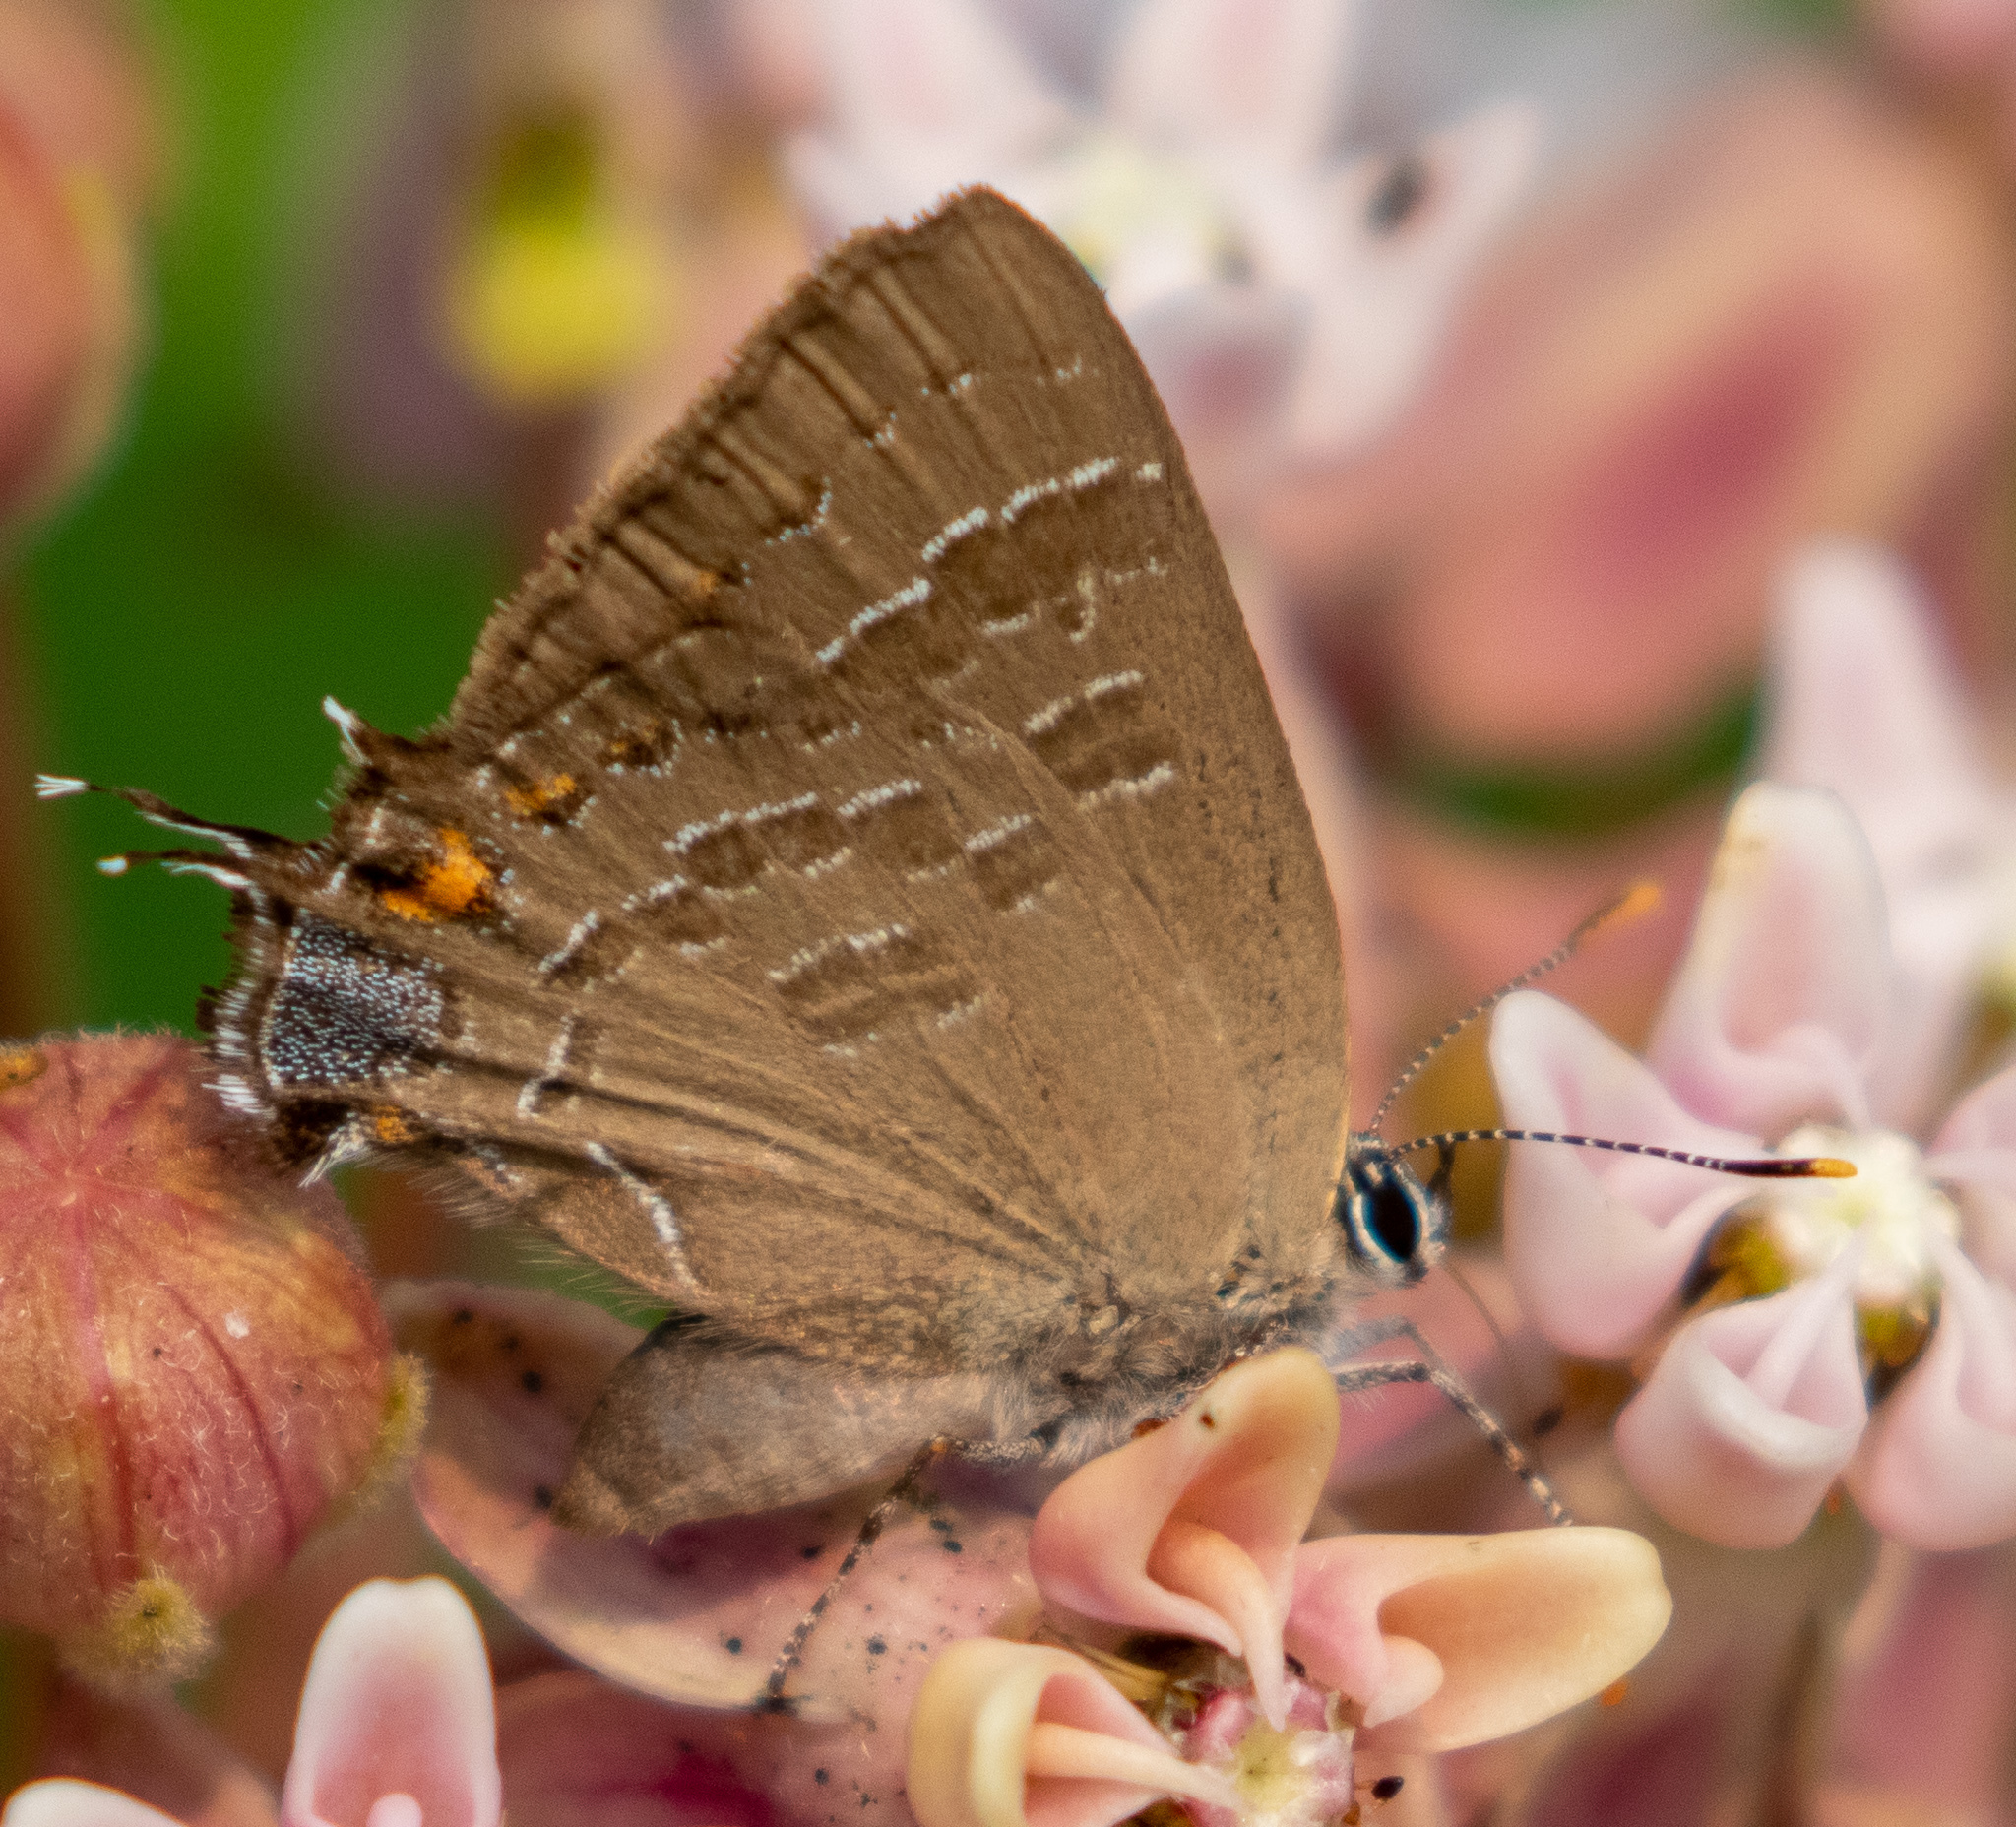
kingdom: Animalia
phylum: Arthropoda
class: Insecta
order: Lepidoptera
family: Lycaenidae
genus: Satyrium
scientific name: Satyrium calanus
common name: Banded hairstreak
